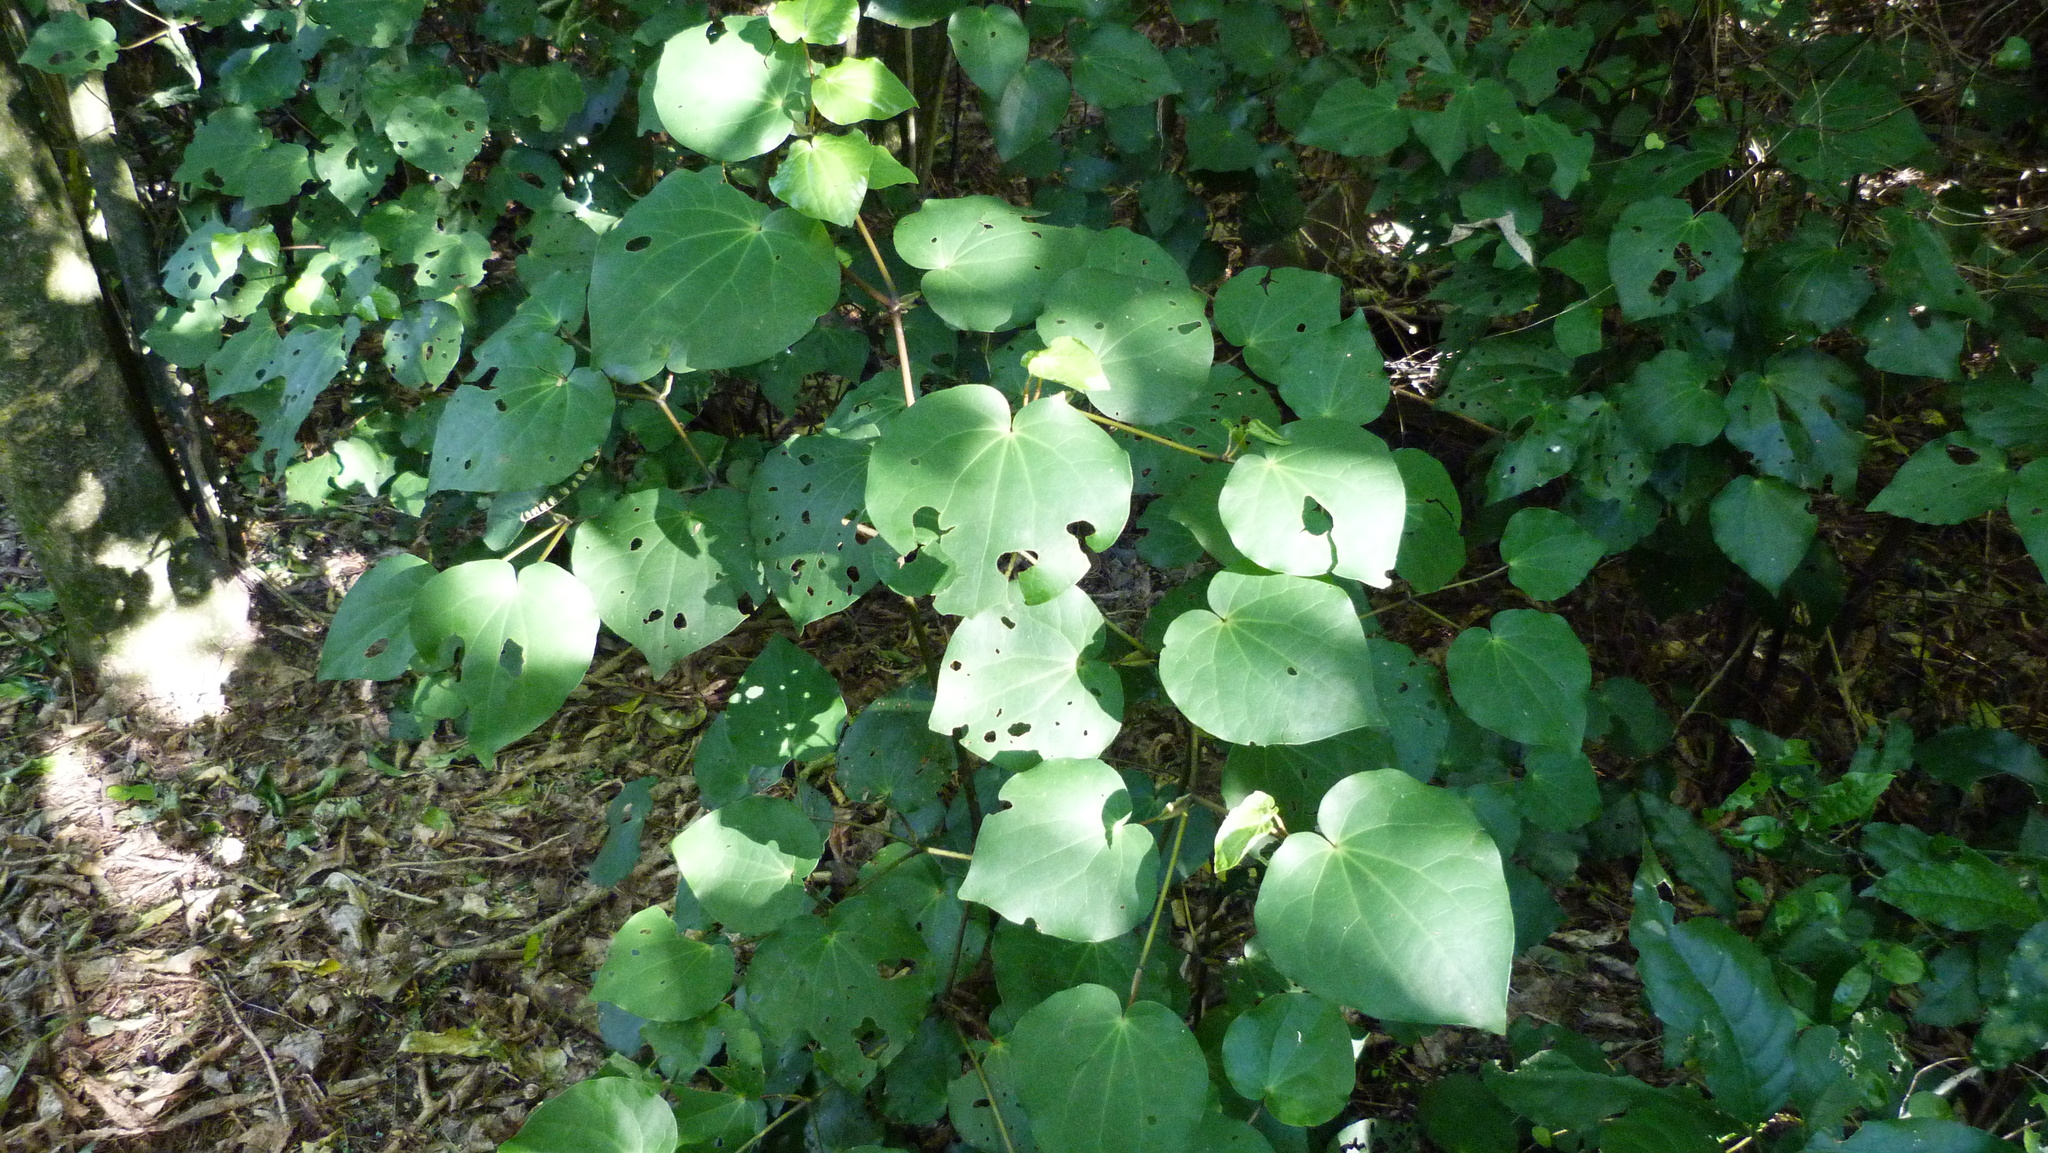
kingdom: Plantae
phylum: Tracheophyta
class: Magnoliopsida
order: Piperales
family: Piperaceae
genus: Macropiper
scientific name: Macropiper excelsum
